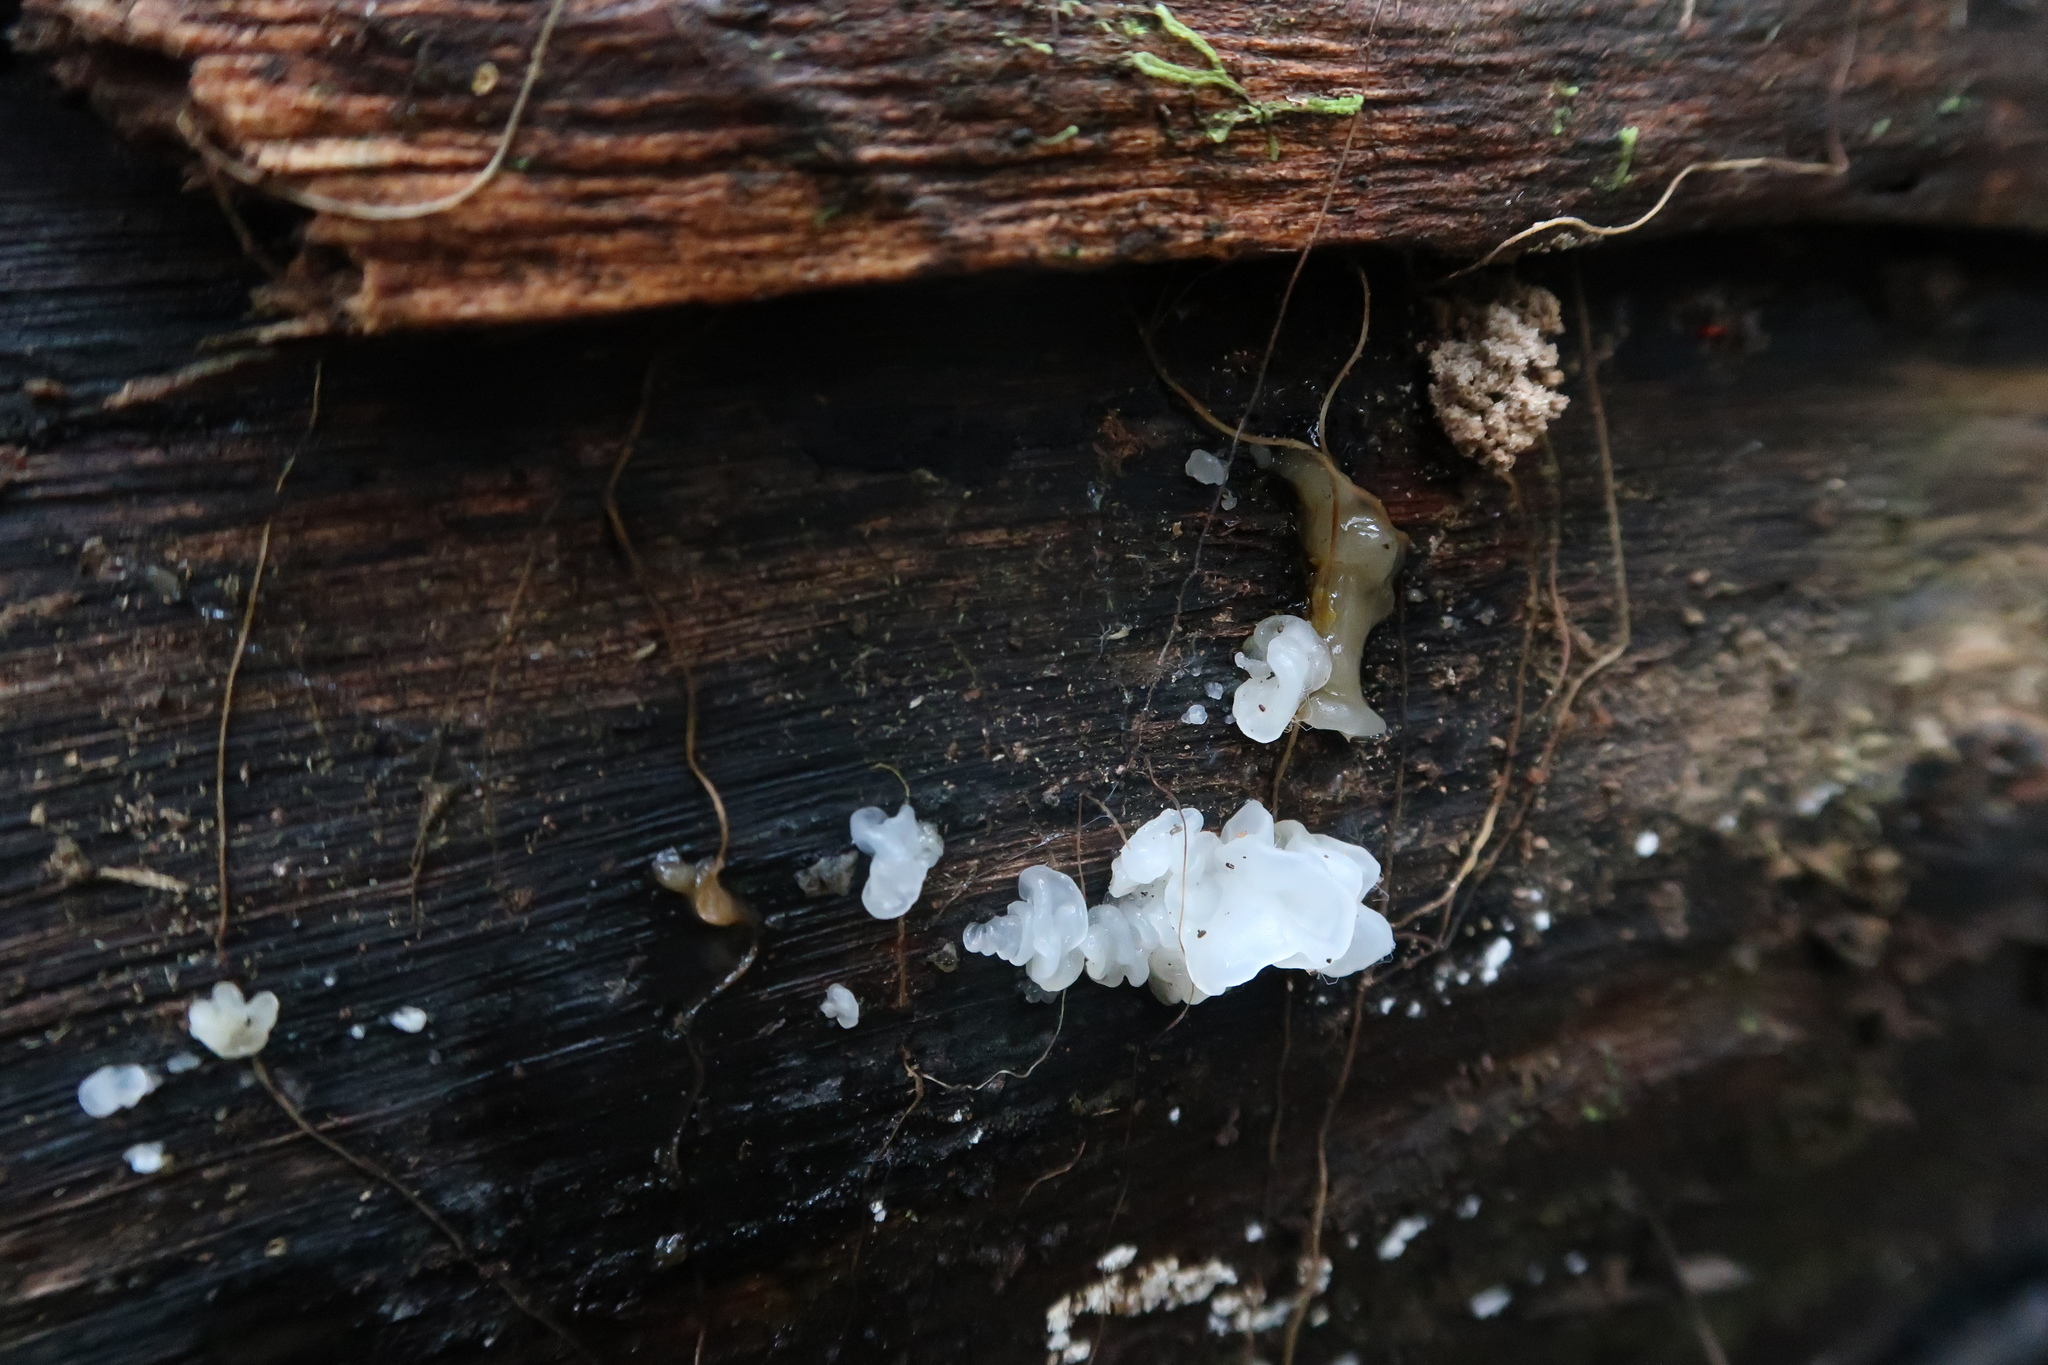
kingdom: Fungi
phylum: Basidiomycota
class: Tremellomycetes
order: Tremellales
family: Tremellaceae
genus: Tremella
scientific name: Tremella fuciformis
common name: Snow fungus
